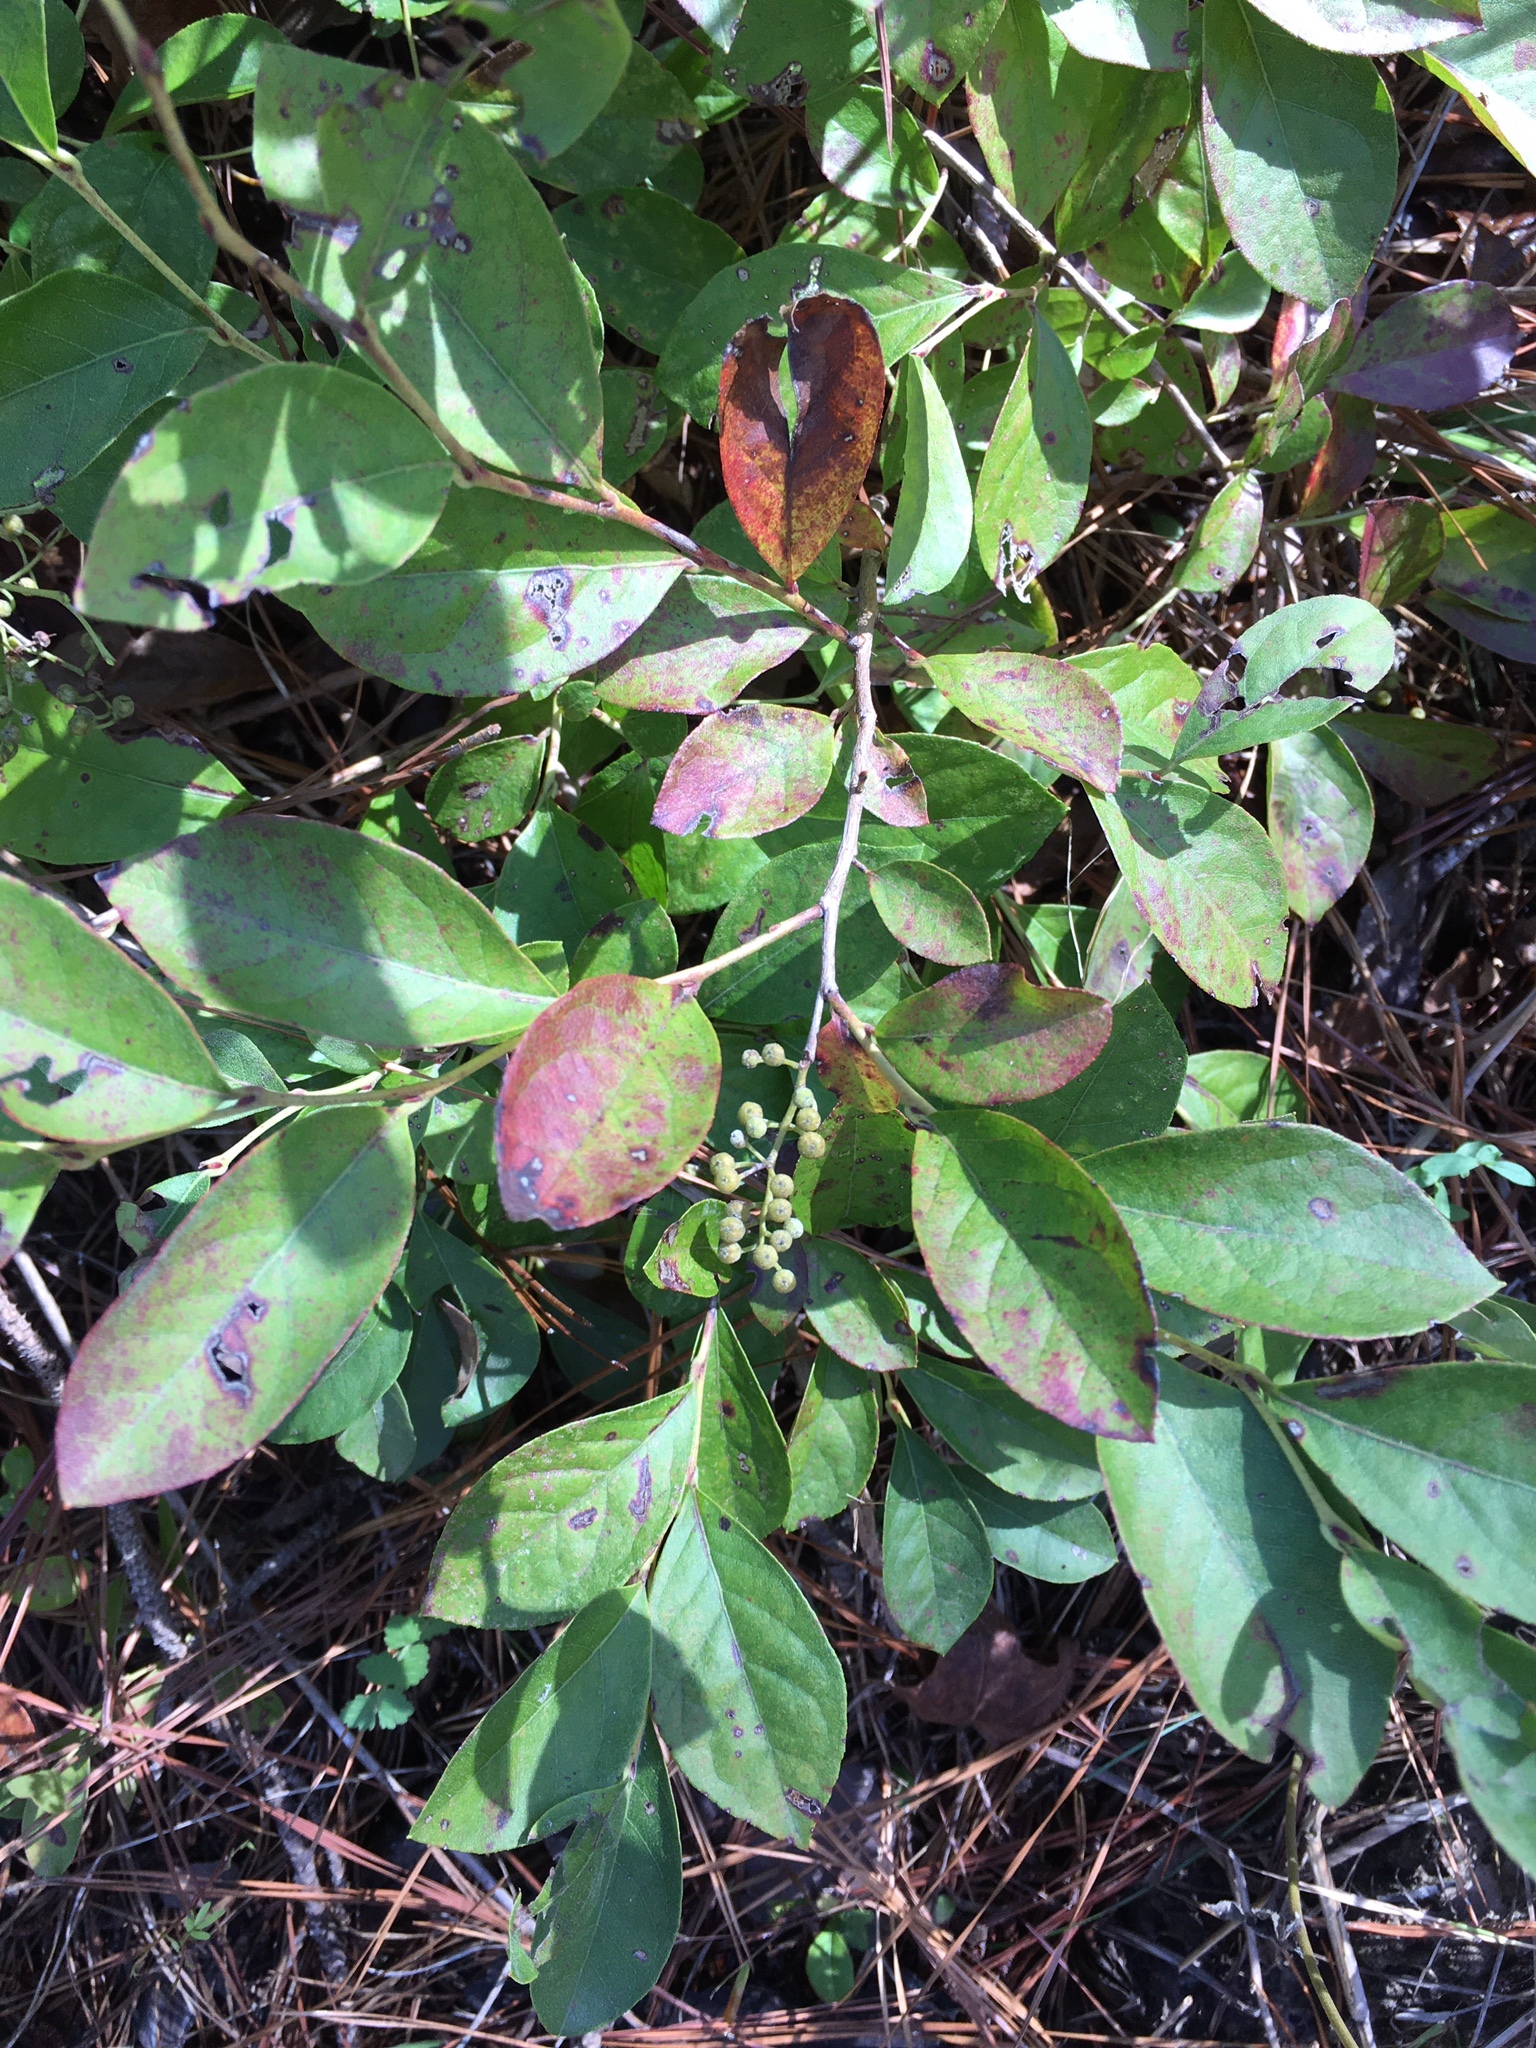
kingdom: Plantae
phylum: Tracheophyta
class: Magnoliopsida
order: Ericales
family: Ericaceae
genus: Lyonia
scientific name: Lyonia ligustrina
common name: Maleberry
